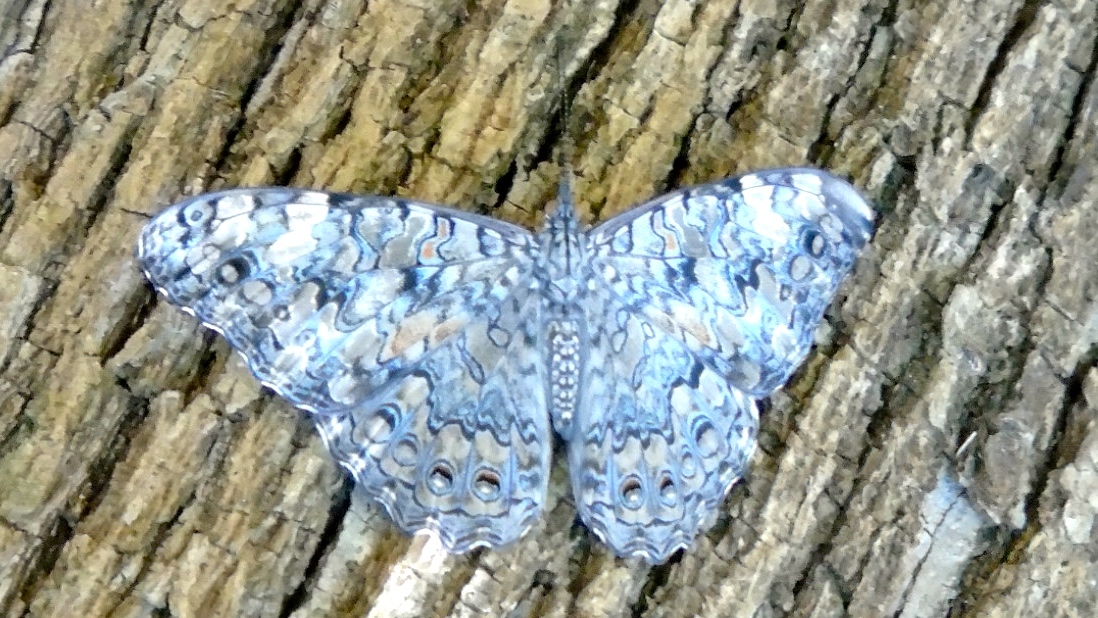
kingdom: Animalia
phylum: Arthropoda
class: Insecta
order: Lepidoptera
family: Nymphalidae
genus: Hamadryas
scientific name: Hamadryas februa
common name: Gray cracker
